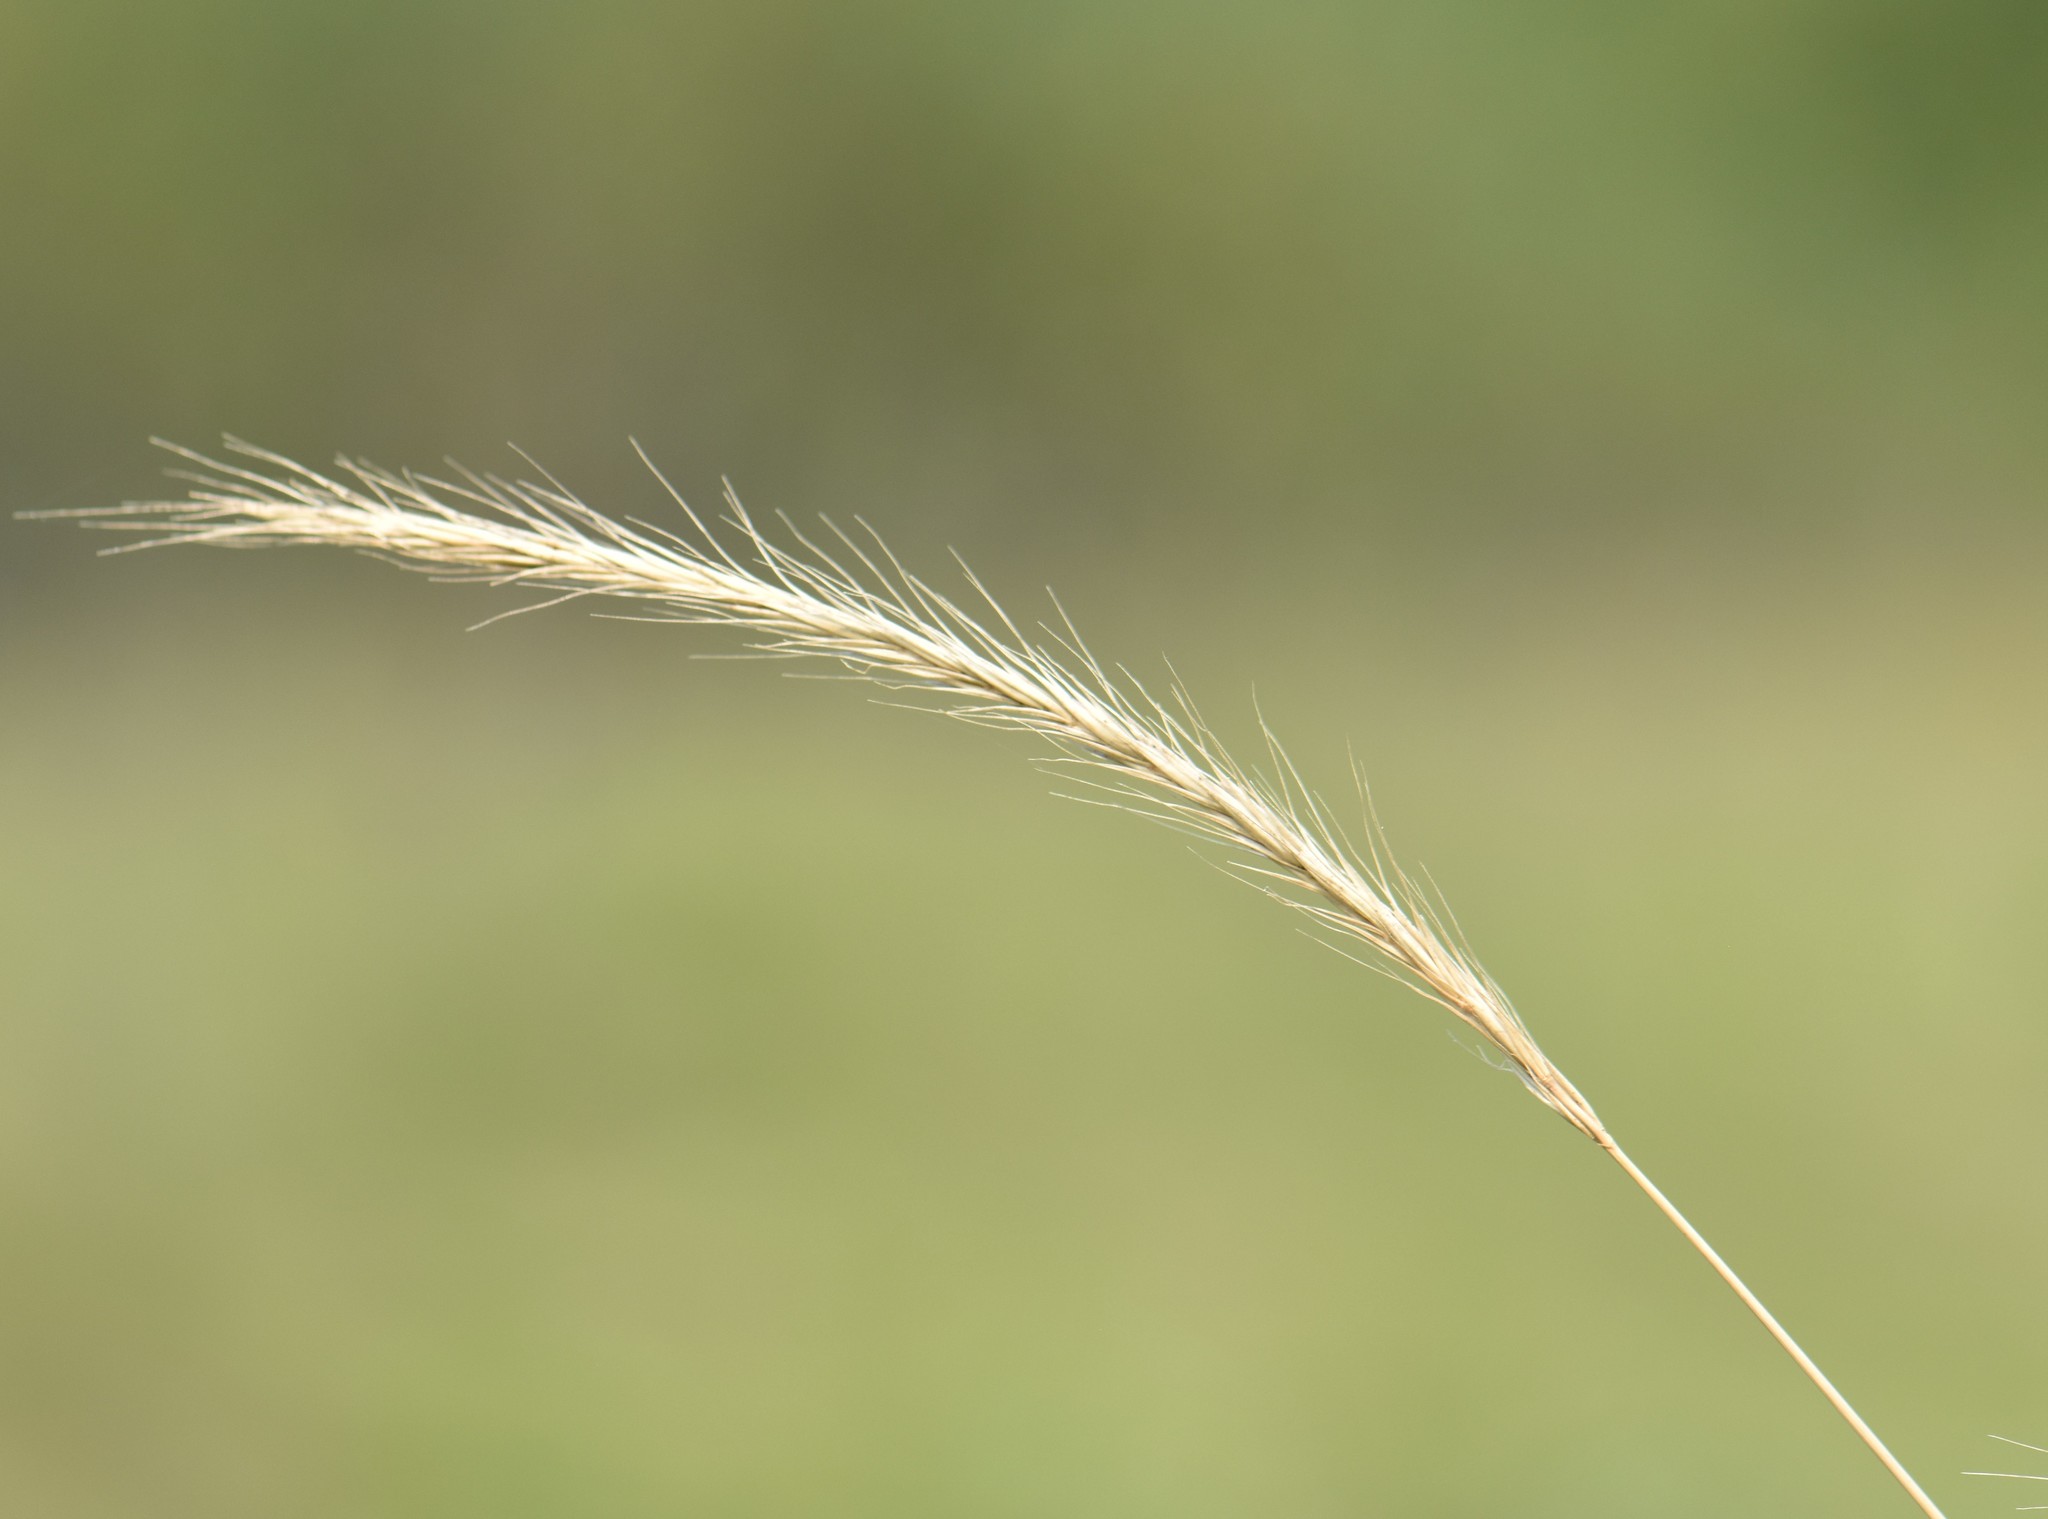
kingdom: Plantae
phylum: Tracheophyta
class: Liliopsida
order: Poales
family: Poaceae
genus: Elyhordeum
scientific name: Elyhordeum macounii
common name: Macoun's barley
